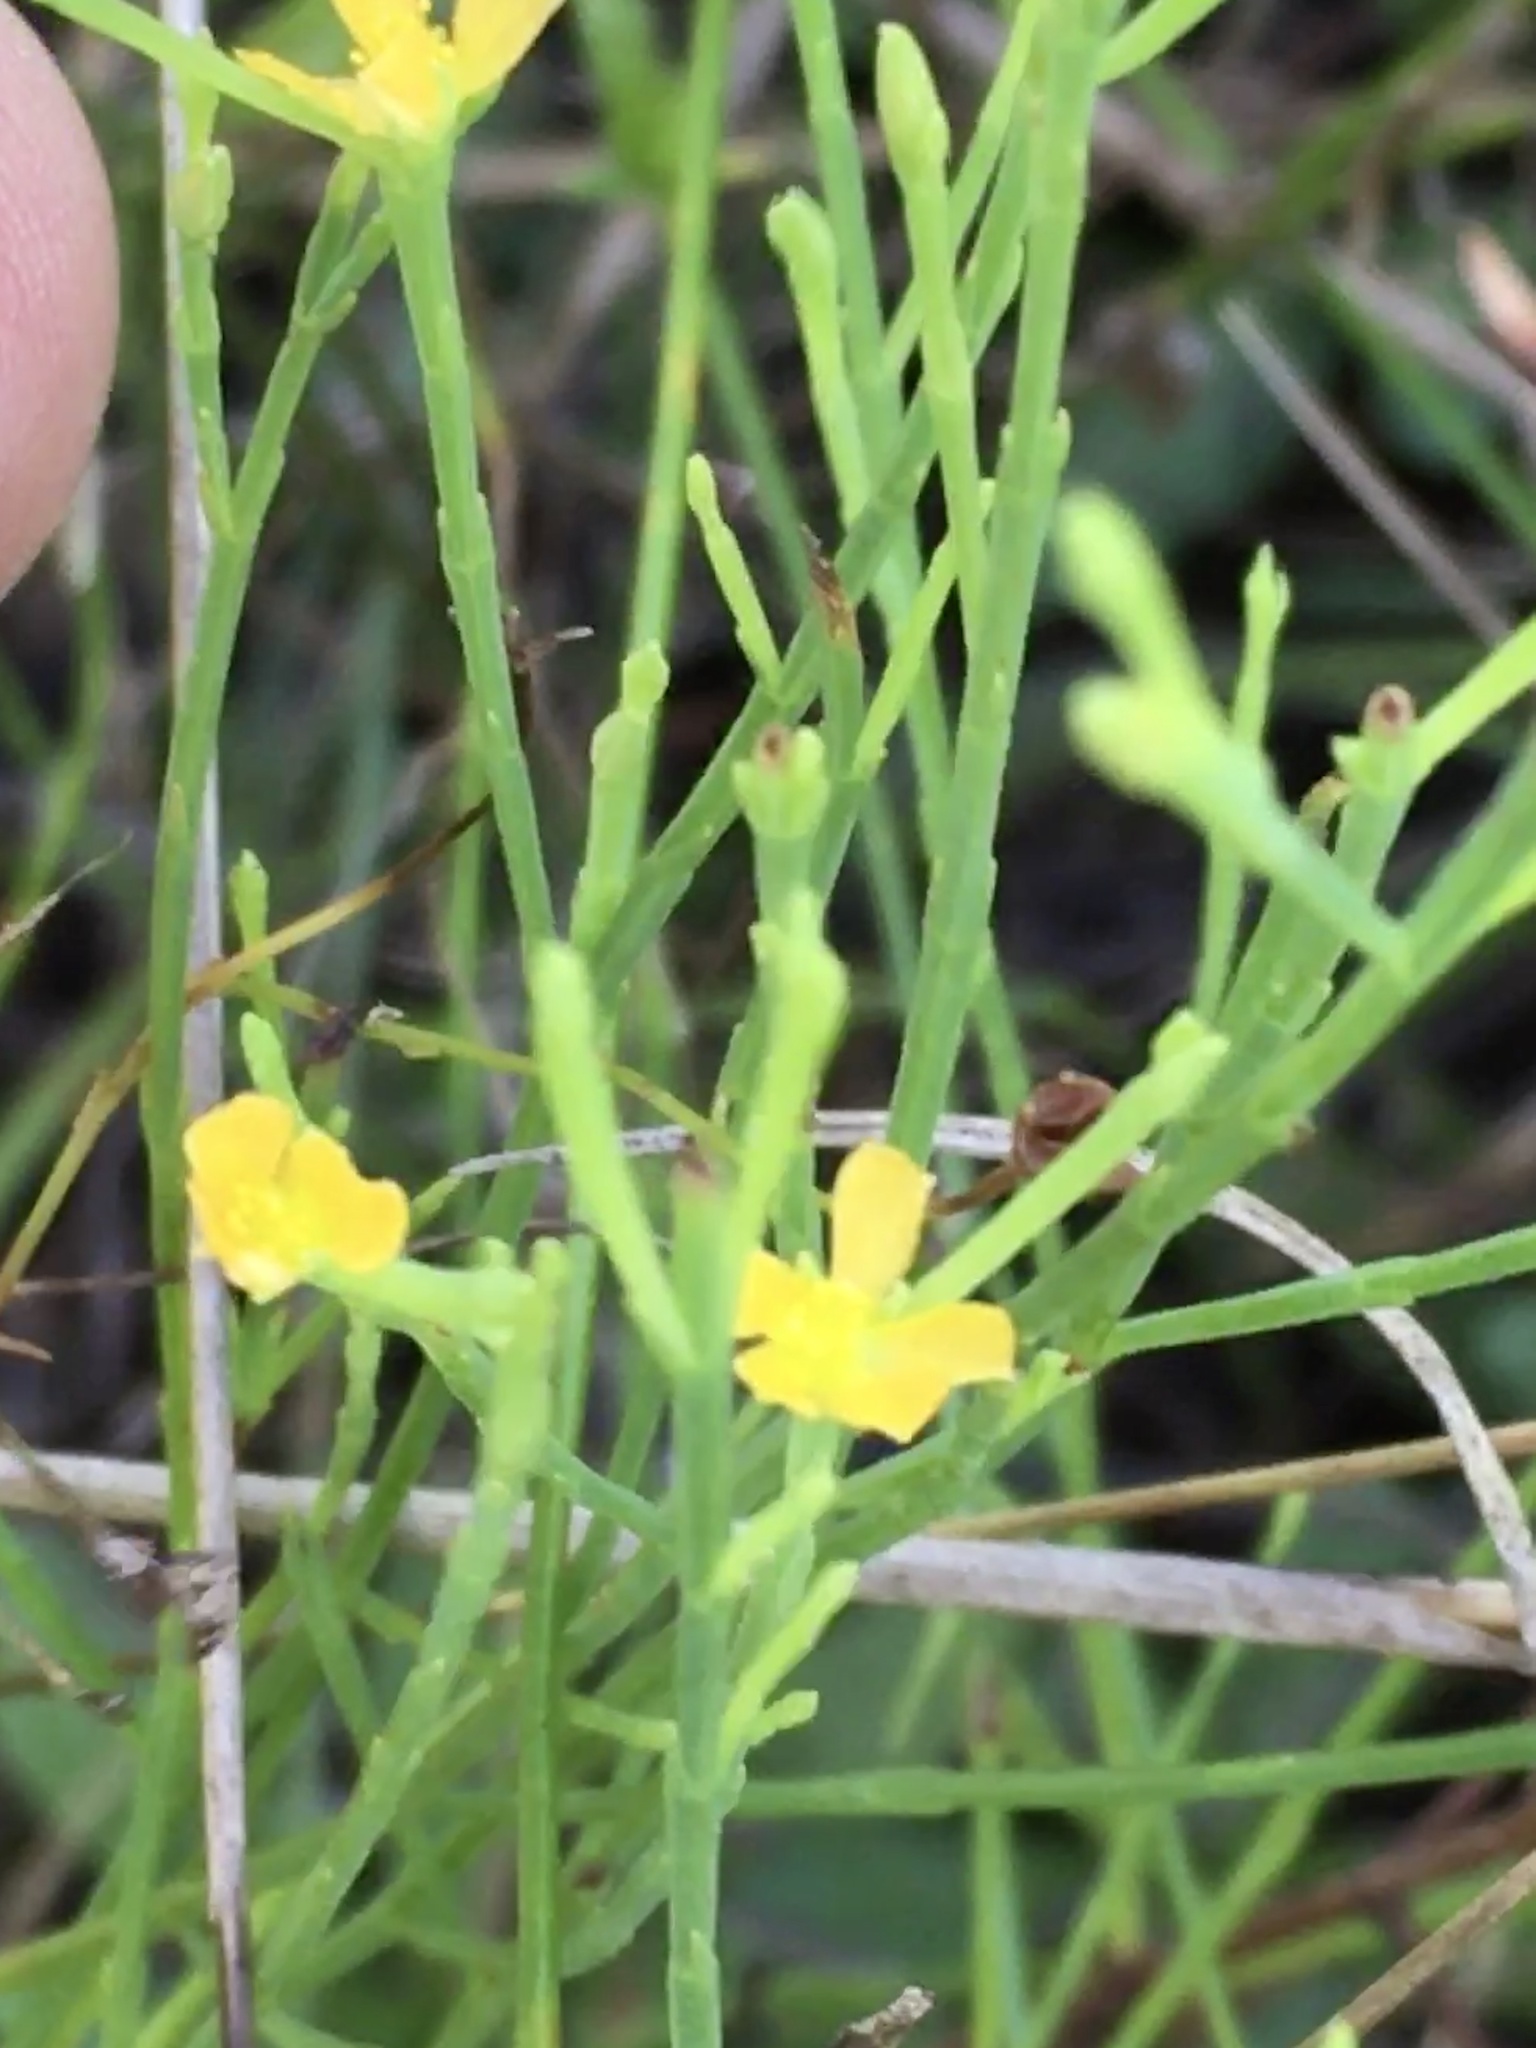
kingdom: Plantae
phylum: Tracheophyta
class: Magnoliopsida
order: Malpighiales
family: Hypericaceae
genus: Hypericum
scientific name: Hypericum gentianoides
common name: Gentian-leaved st. john's-wort
